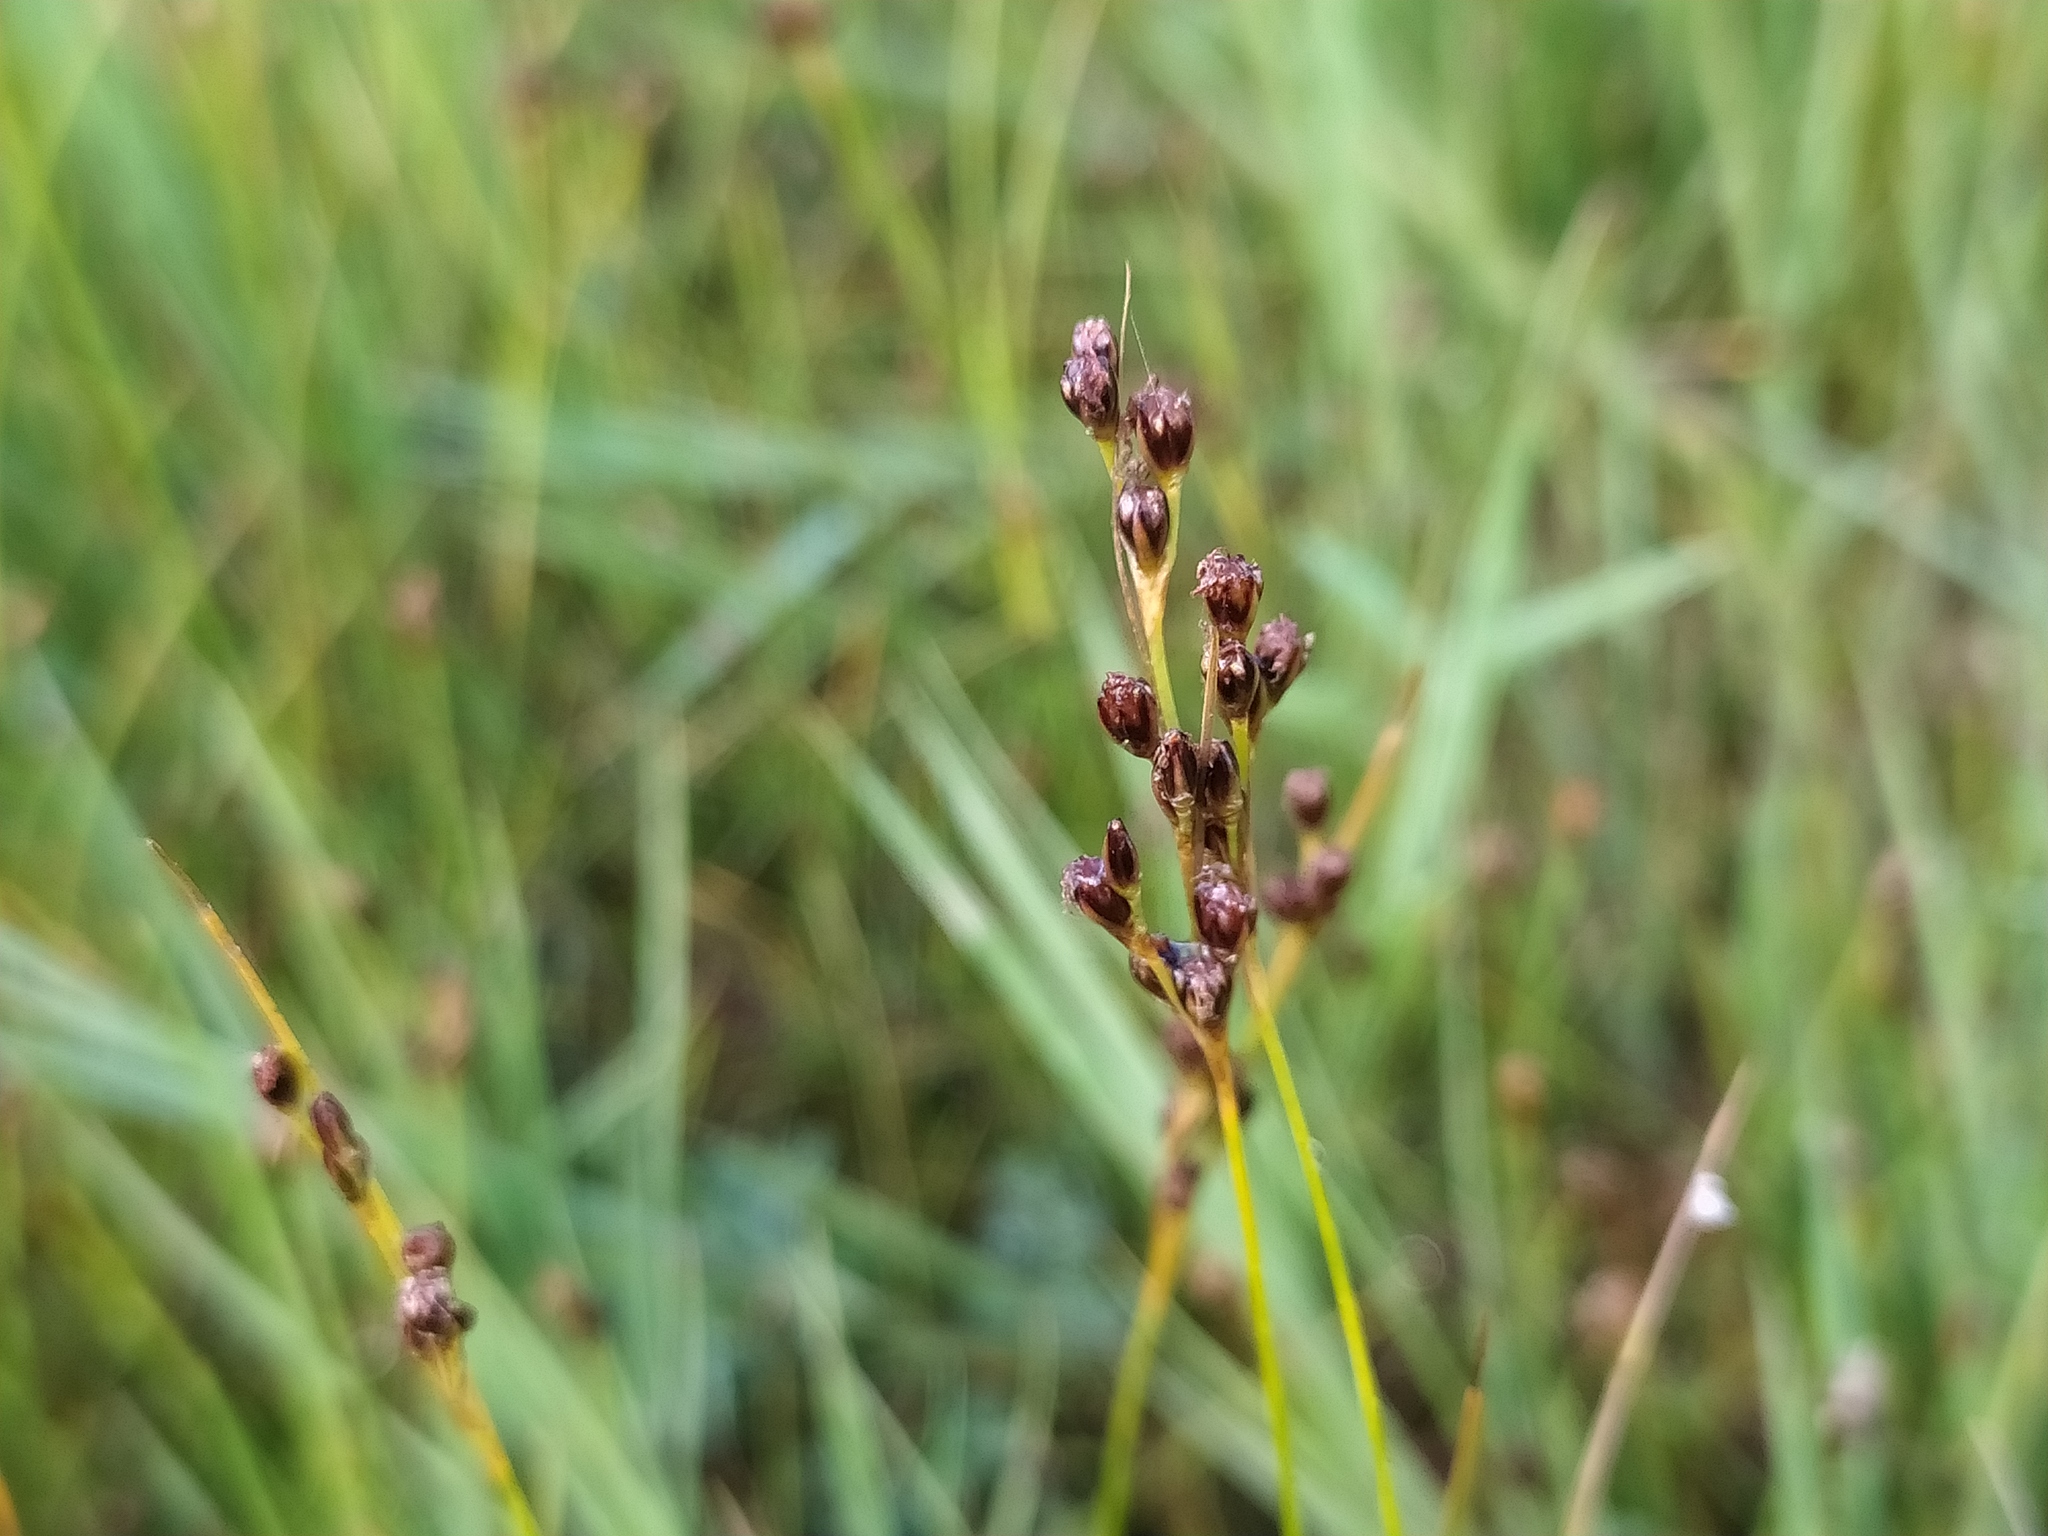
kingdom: Plantae
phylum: Tracheophyta
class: Liliopsida
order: Poales
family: Juncaceae
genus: Juncus
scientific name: Juncus gerardi
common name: Saltmarsh rush
